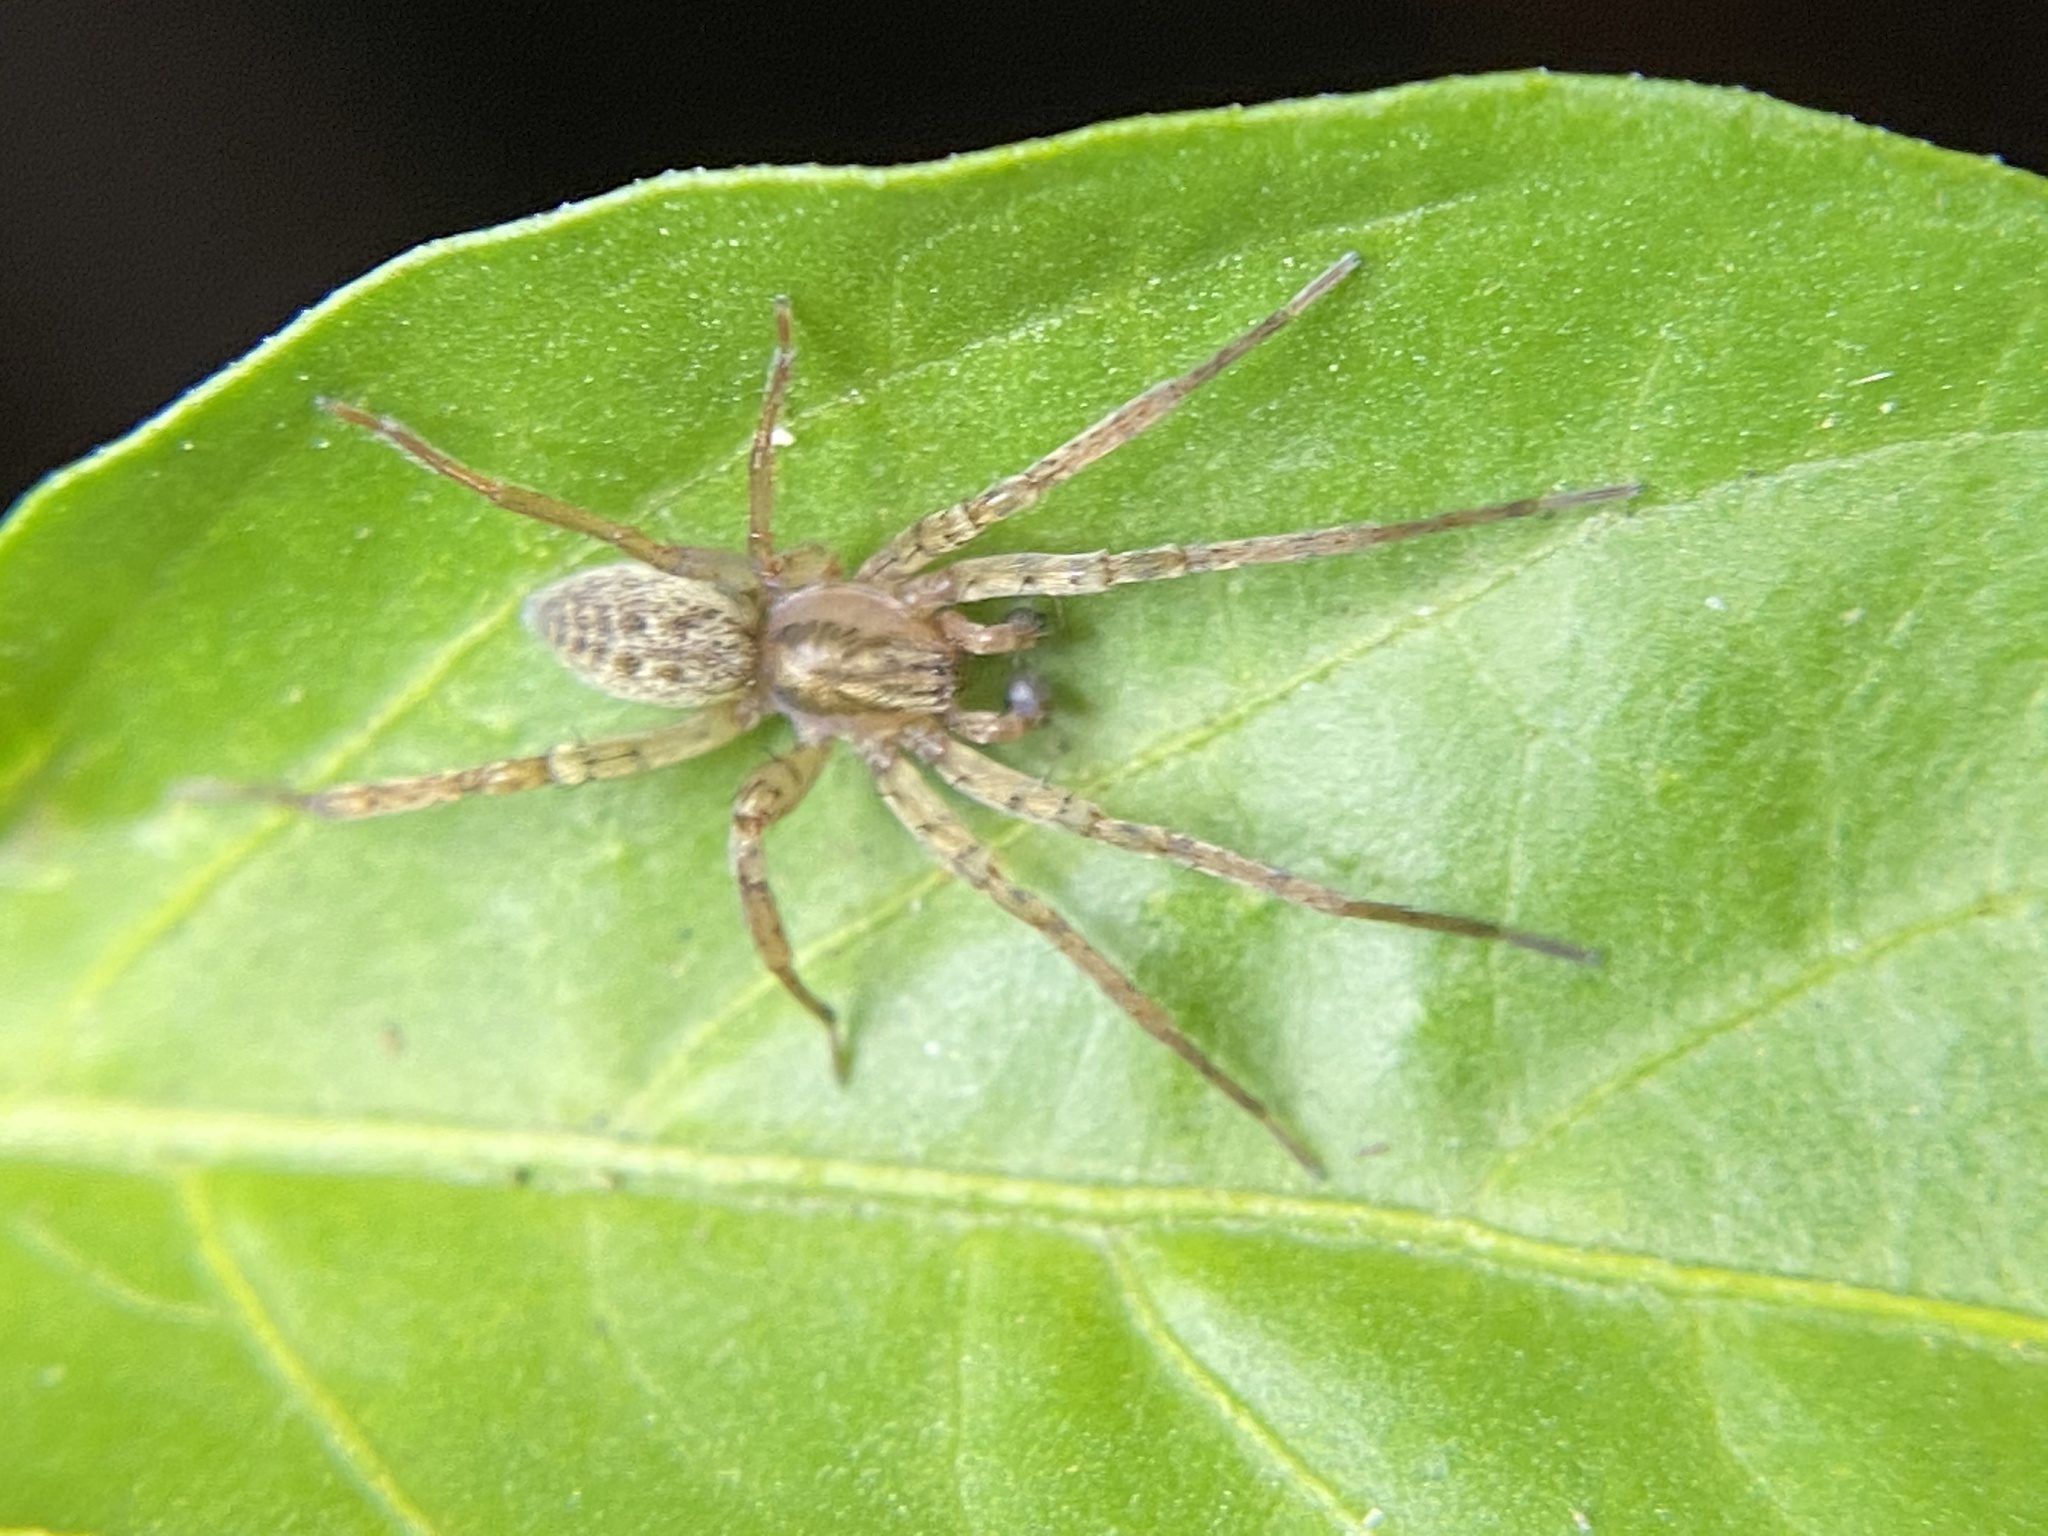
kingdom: Animalia
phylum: Arthropoda
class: Arachnida
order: Araneae
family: Anyphaenidae
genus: Anyphaena
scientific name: Anyphaena
